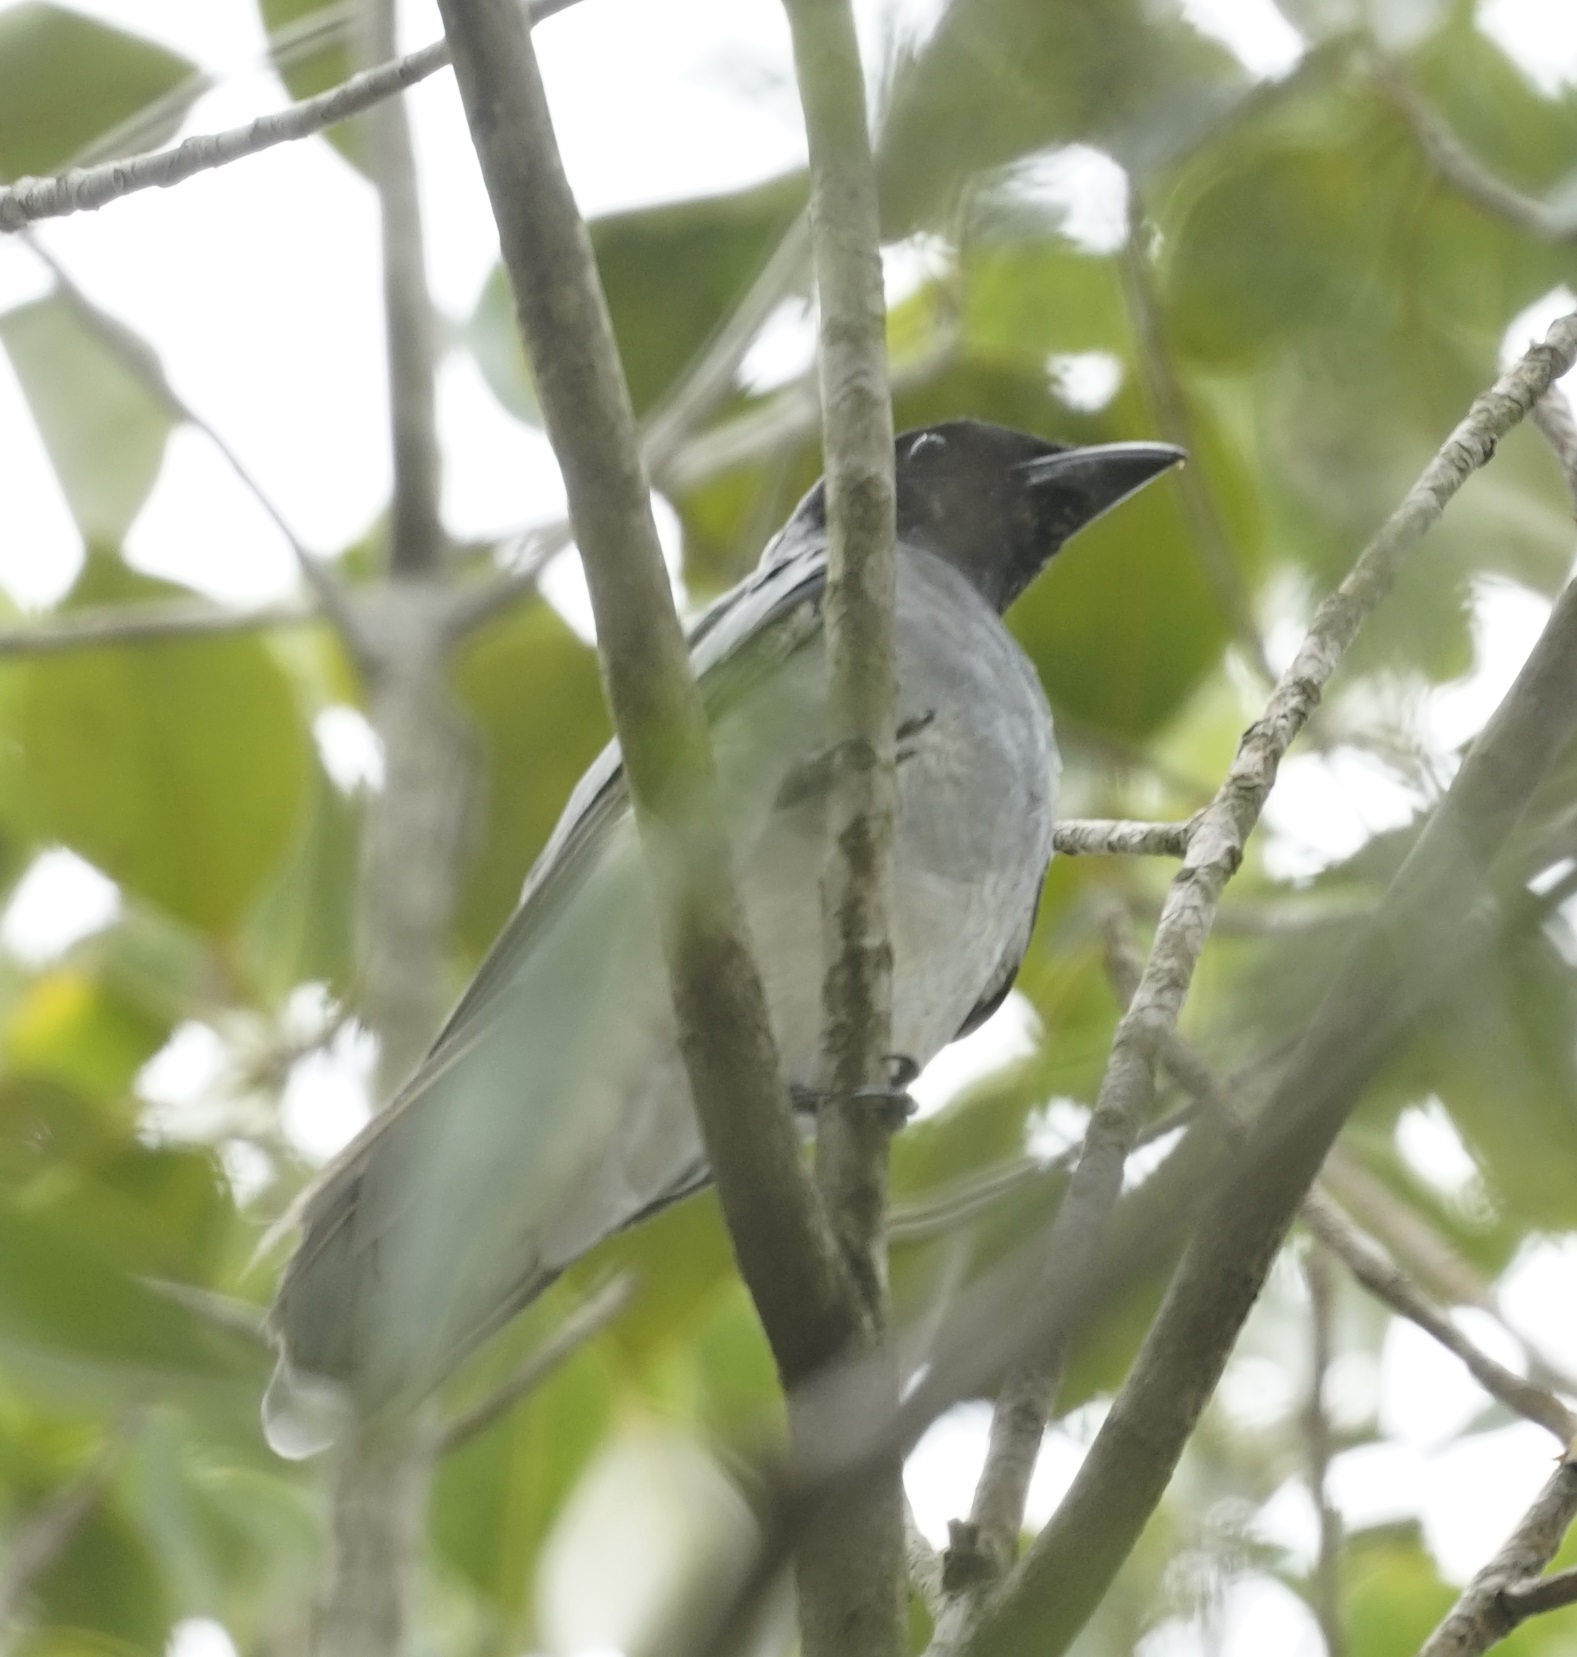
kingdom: Animalia
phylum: Chordata
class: Aves
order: Passeriformes
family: Campephagidae
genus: Coracina
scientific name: Coracina novaehollandiae
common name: Black-faced cuckooshrike
